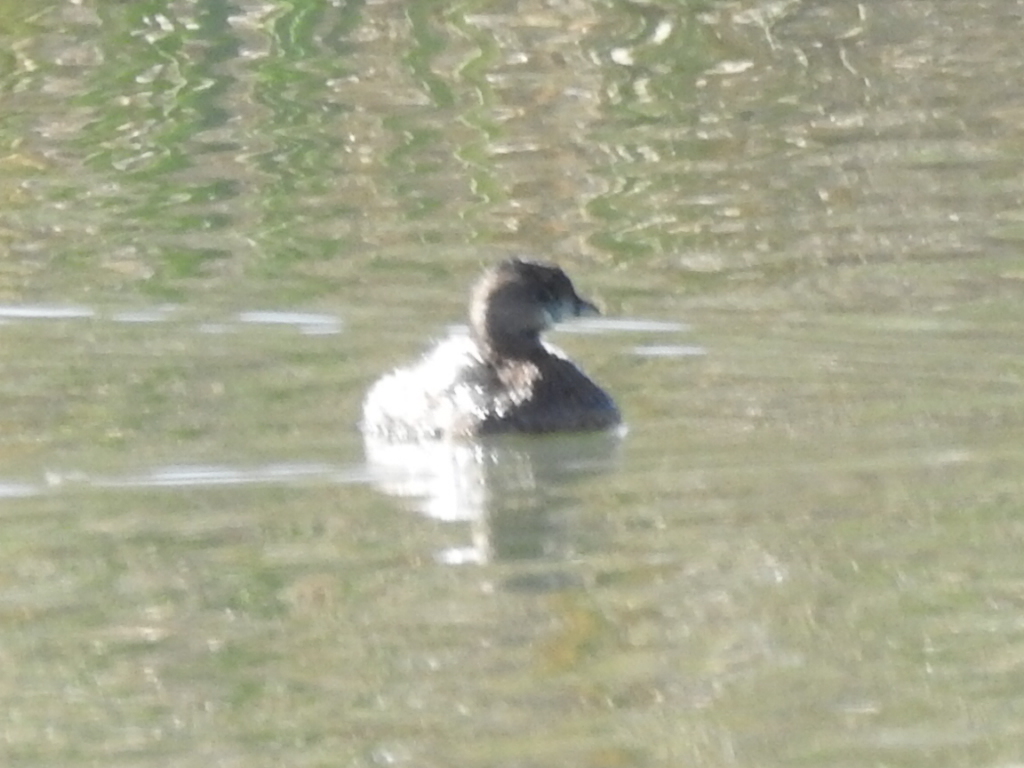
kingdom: Animalia
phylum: Chordata
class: Aves
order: Podicipediformes
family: Podicipedidae
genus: Podilymbus
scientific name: Podilymbus podiceps
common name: Pied-billed grebe
